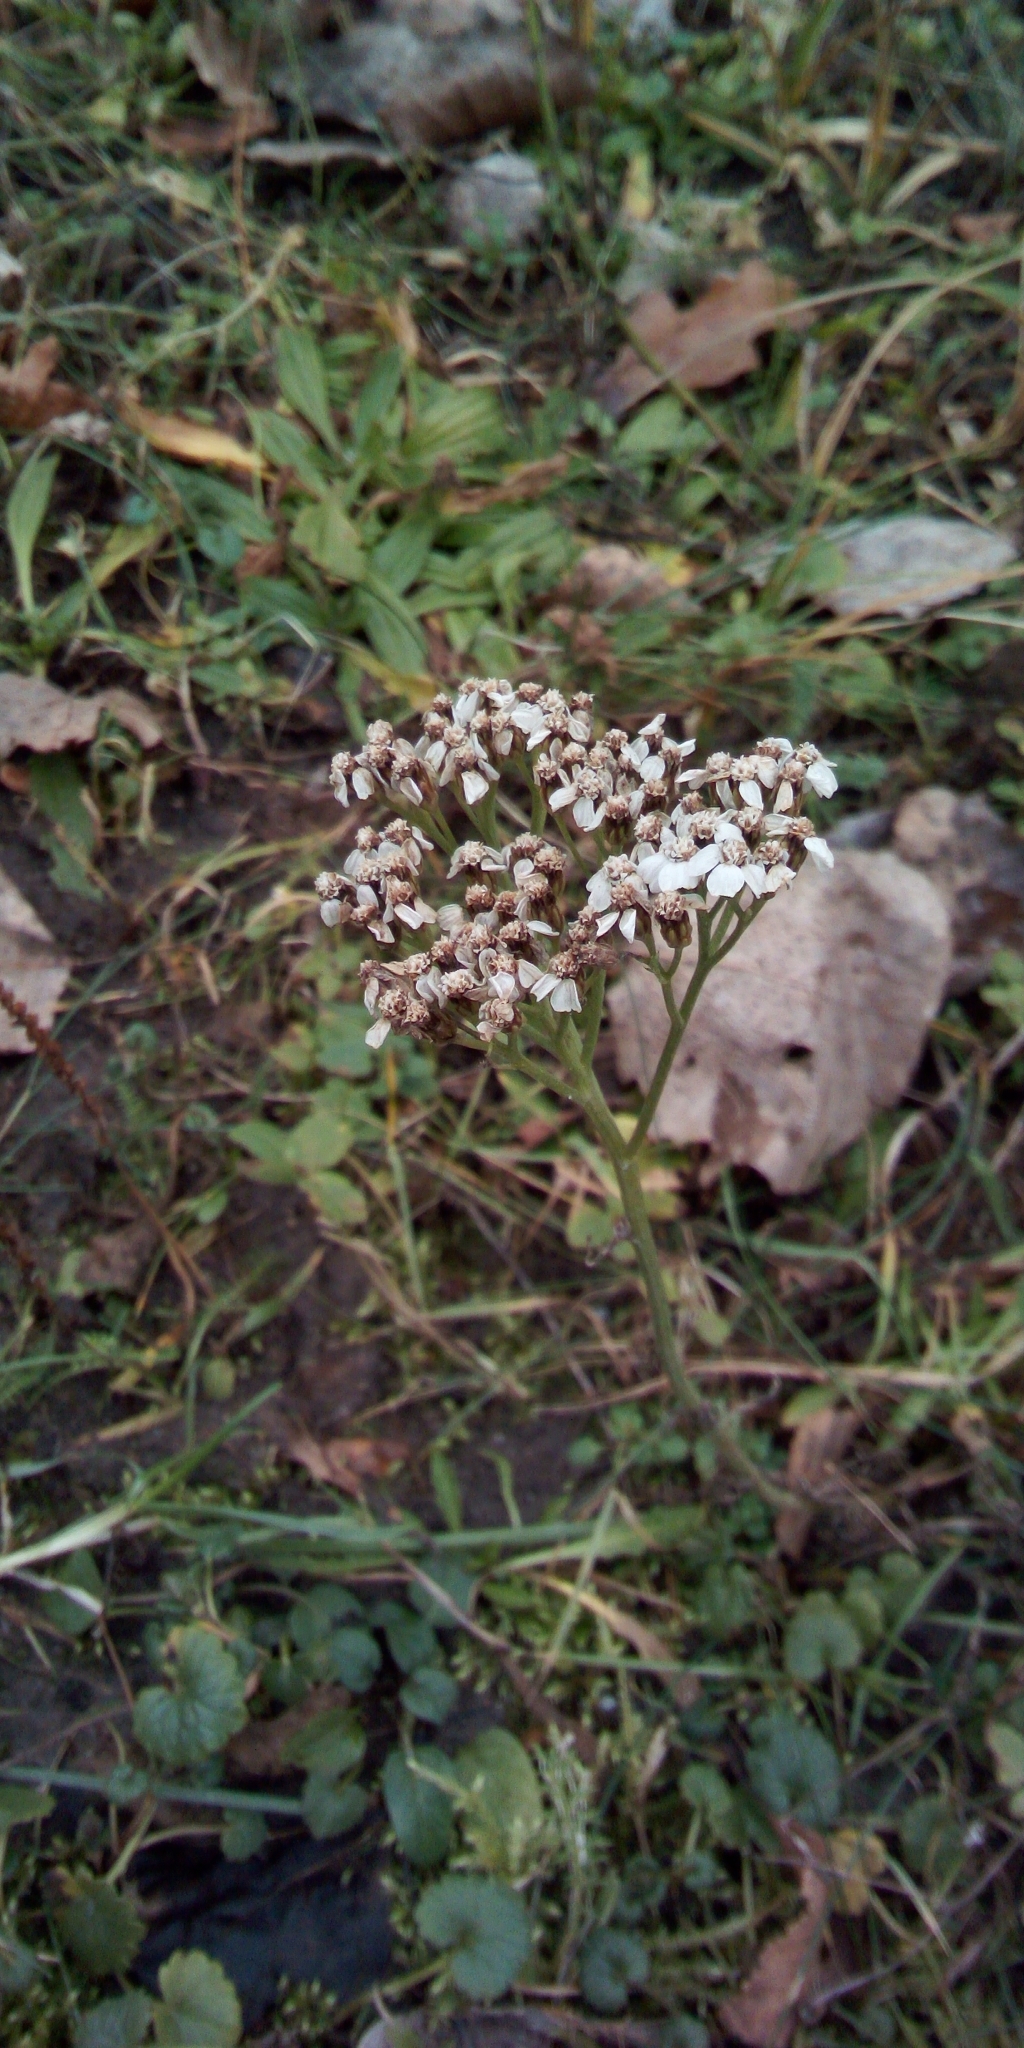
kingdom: Plantae
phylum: Tracheophyta
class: Magnoliopsida
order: Asterales
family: Asteraceae
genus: Achillea
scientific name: Achillea millefolium
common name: Yarrow
